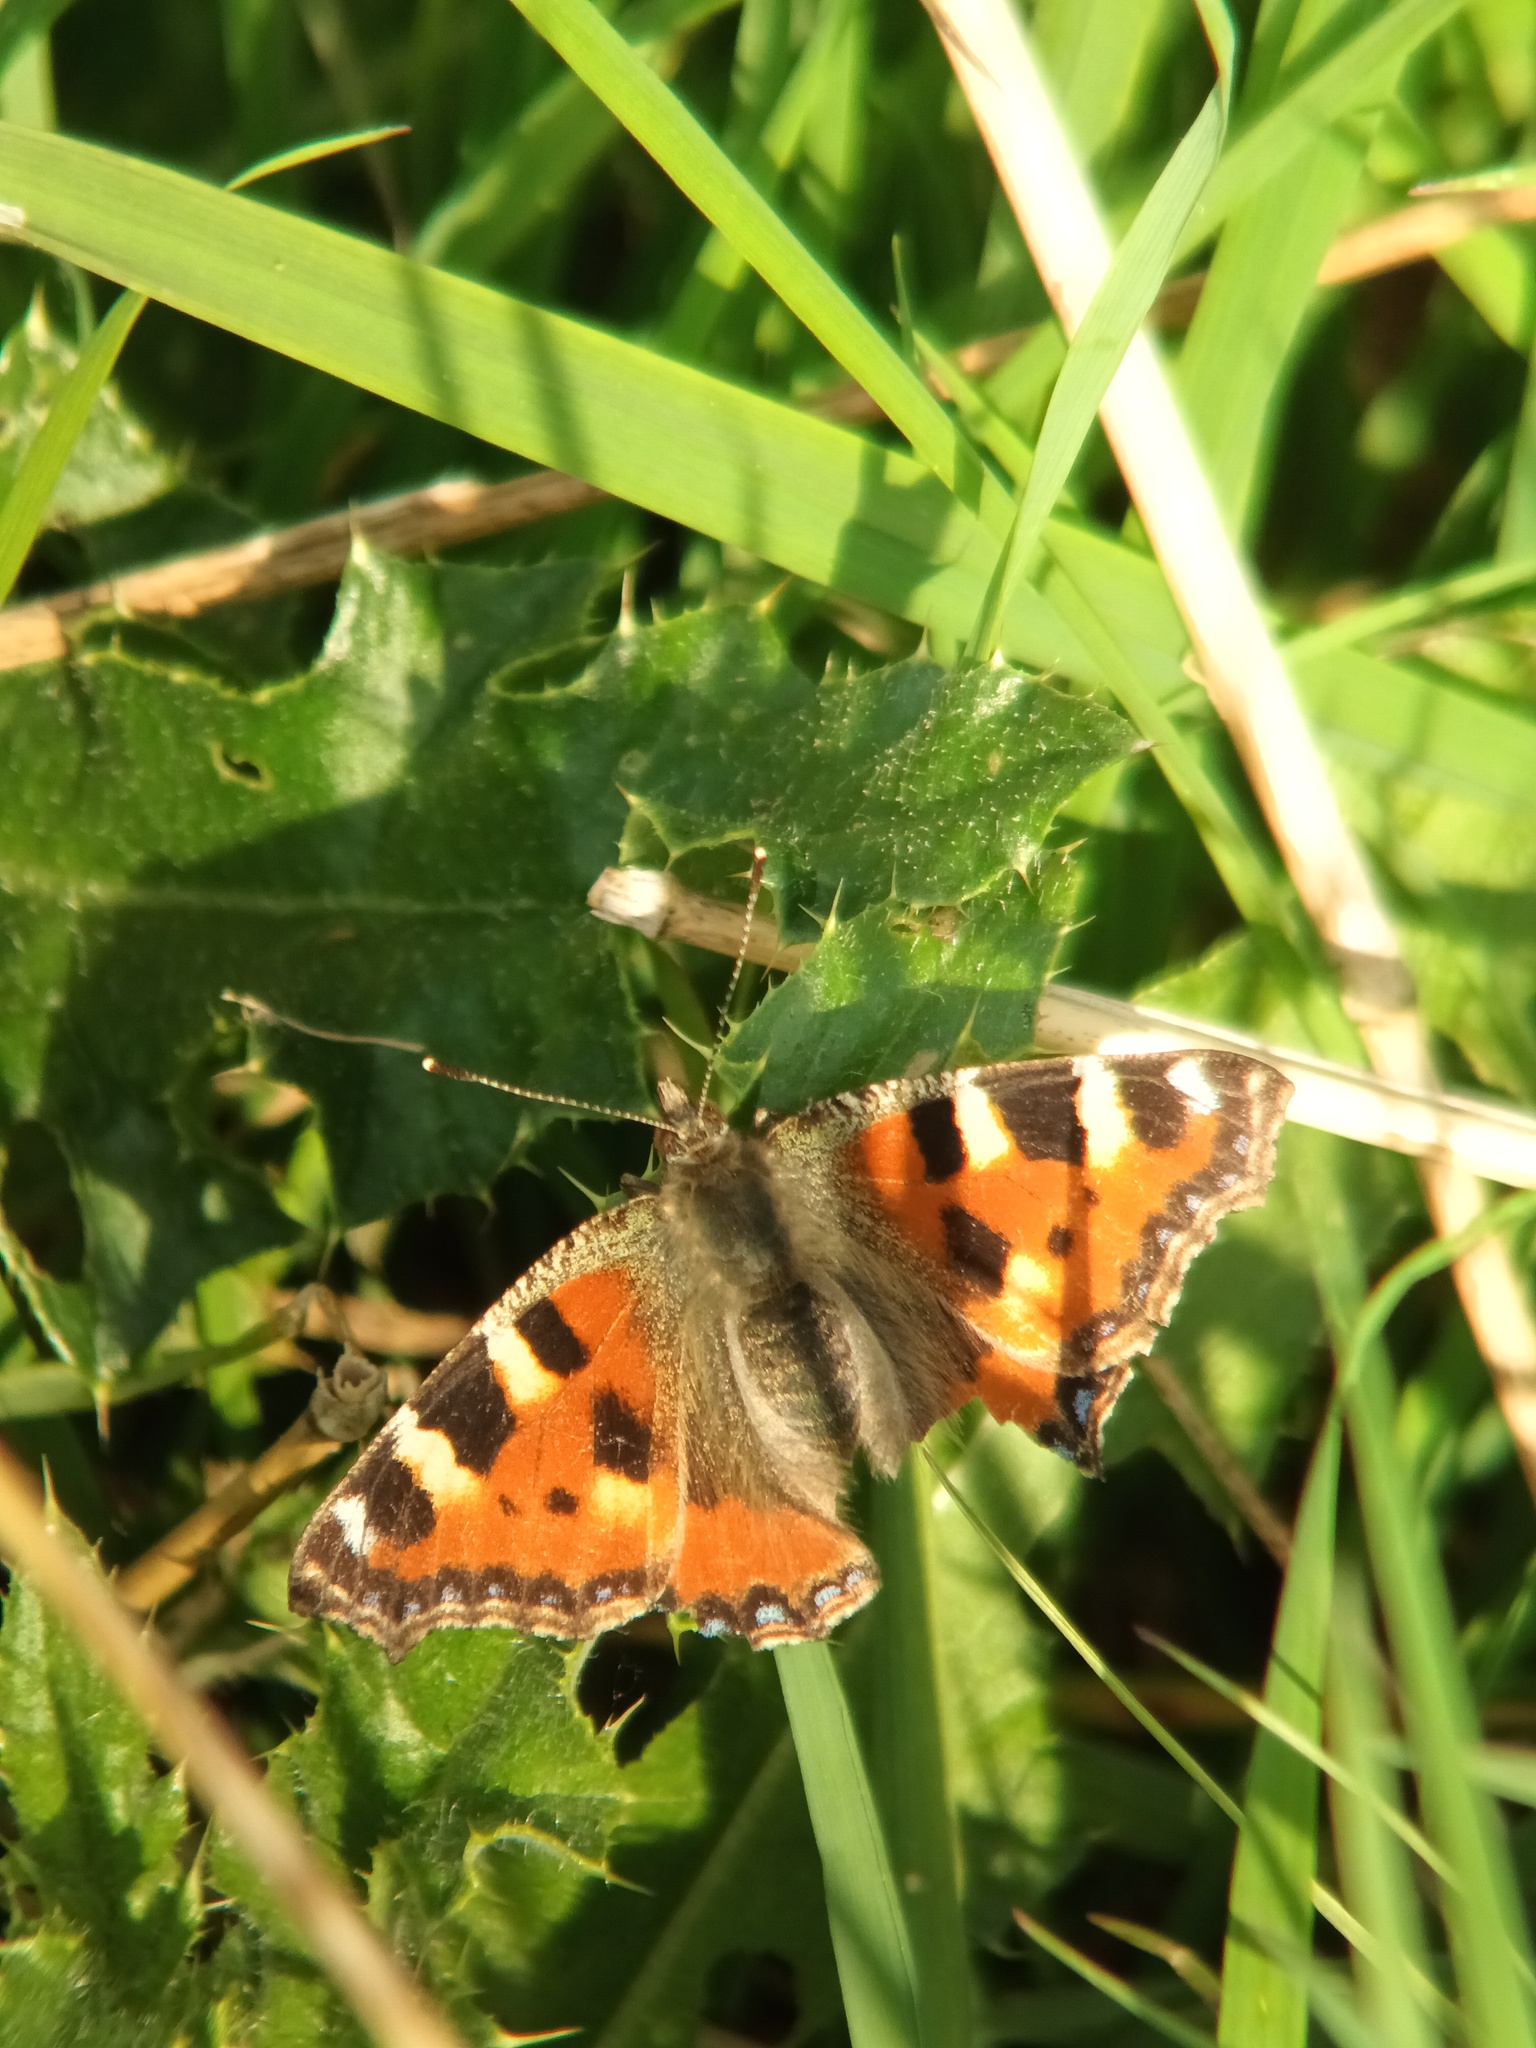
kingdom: Animalia
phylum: Arthropoda
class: Insecta
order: Lepidoptera
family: Nymphalidae
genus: Aglais
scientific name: Aglais urticae
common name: Small tortoiseshell
